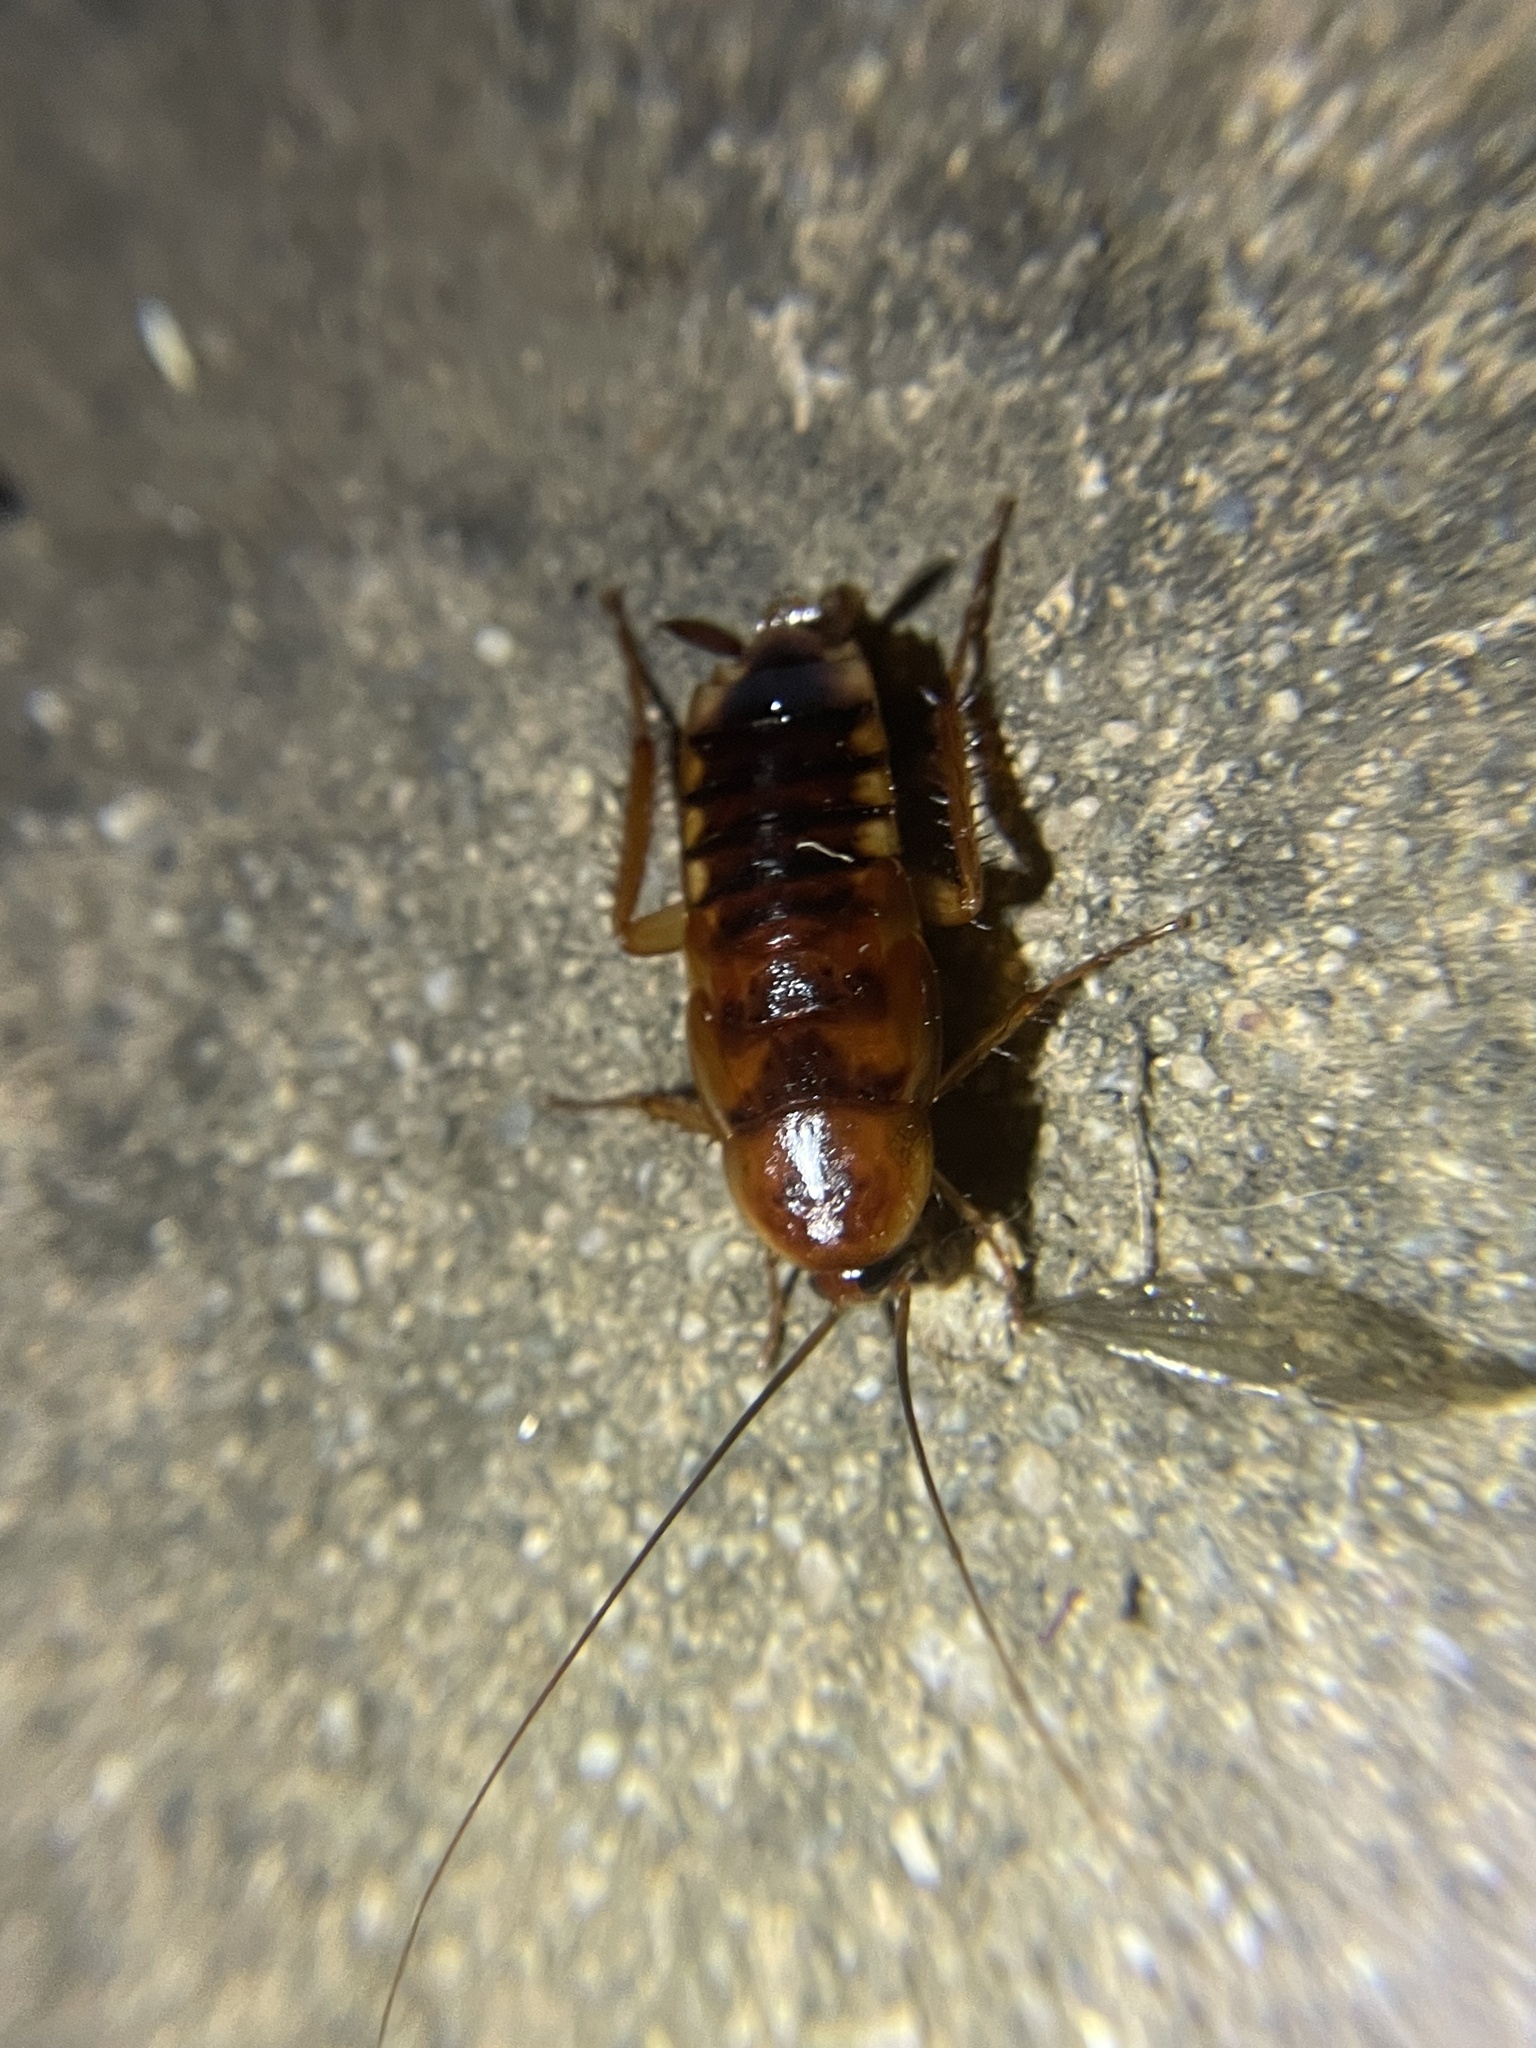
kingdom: Animalia
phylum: Arthropoda
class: Insecta
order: Blattodea
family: Blattidae
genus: Periplaneta
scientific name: Periplaneta lateralis
